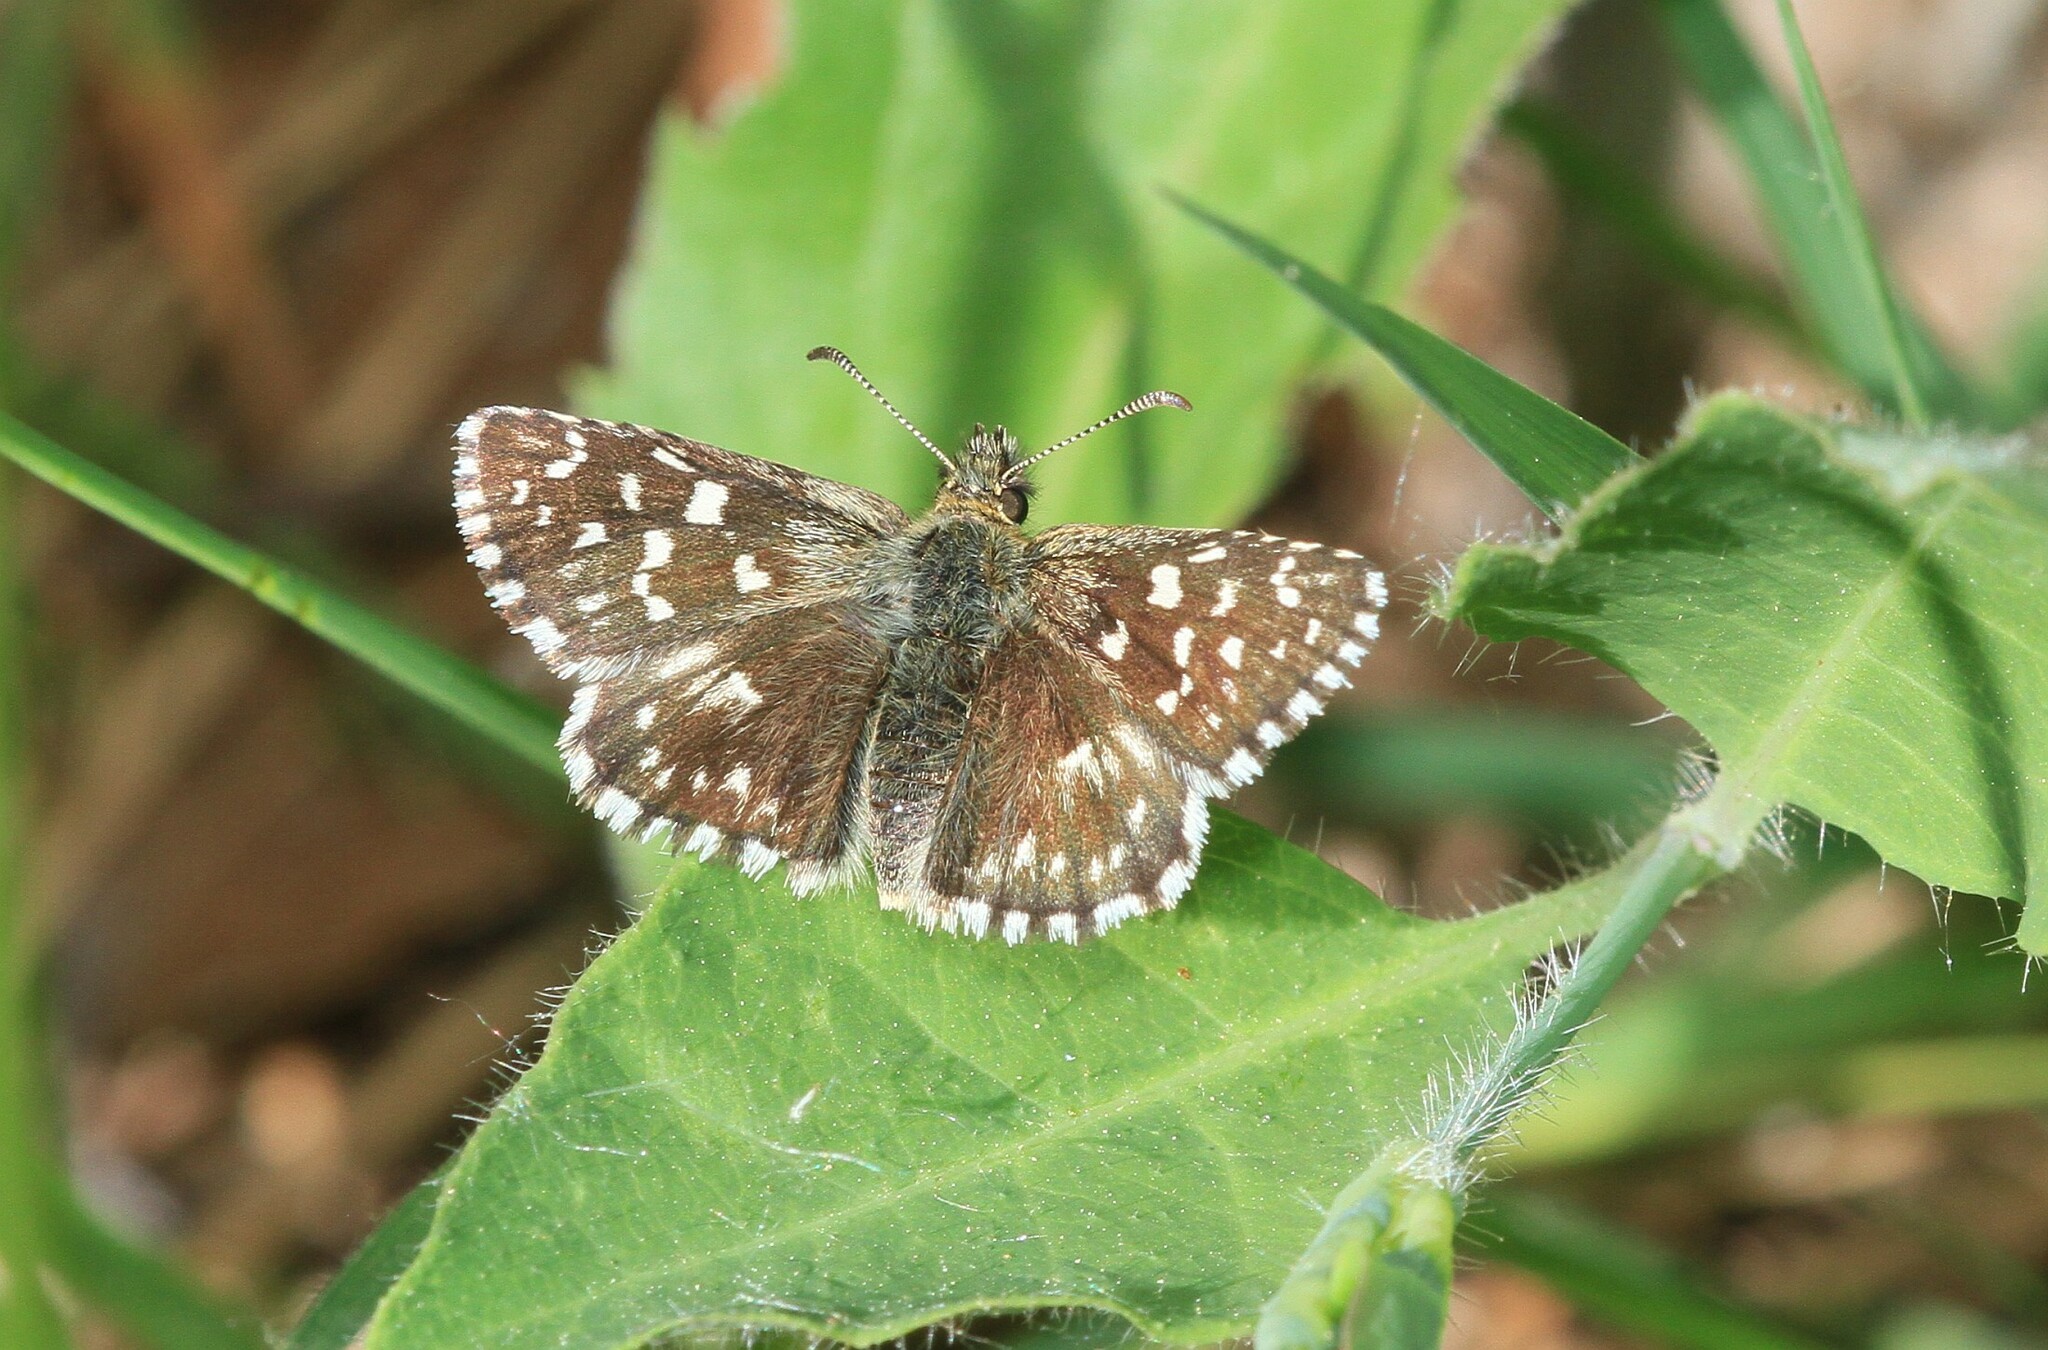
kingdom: Animalia
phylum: Arthropoda
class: Insecta
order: Lepidoptera
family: Hesperiidae
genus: Pyrgus
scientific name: Pyrgus malvae
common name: Grizzled skipper
